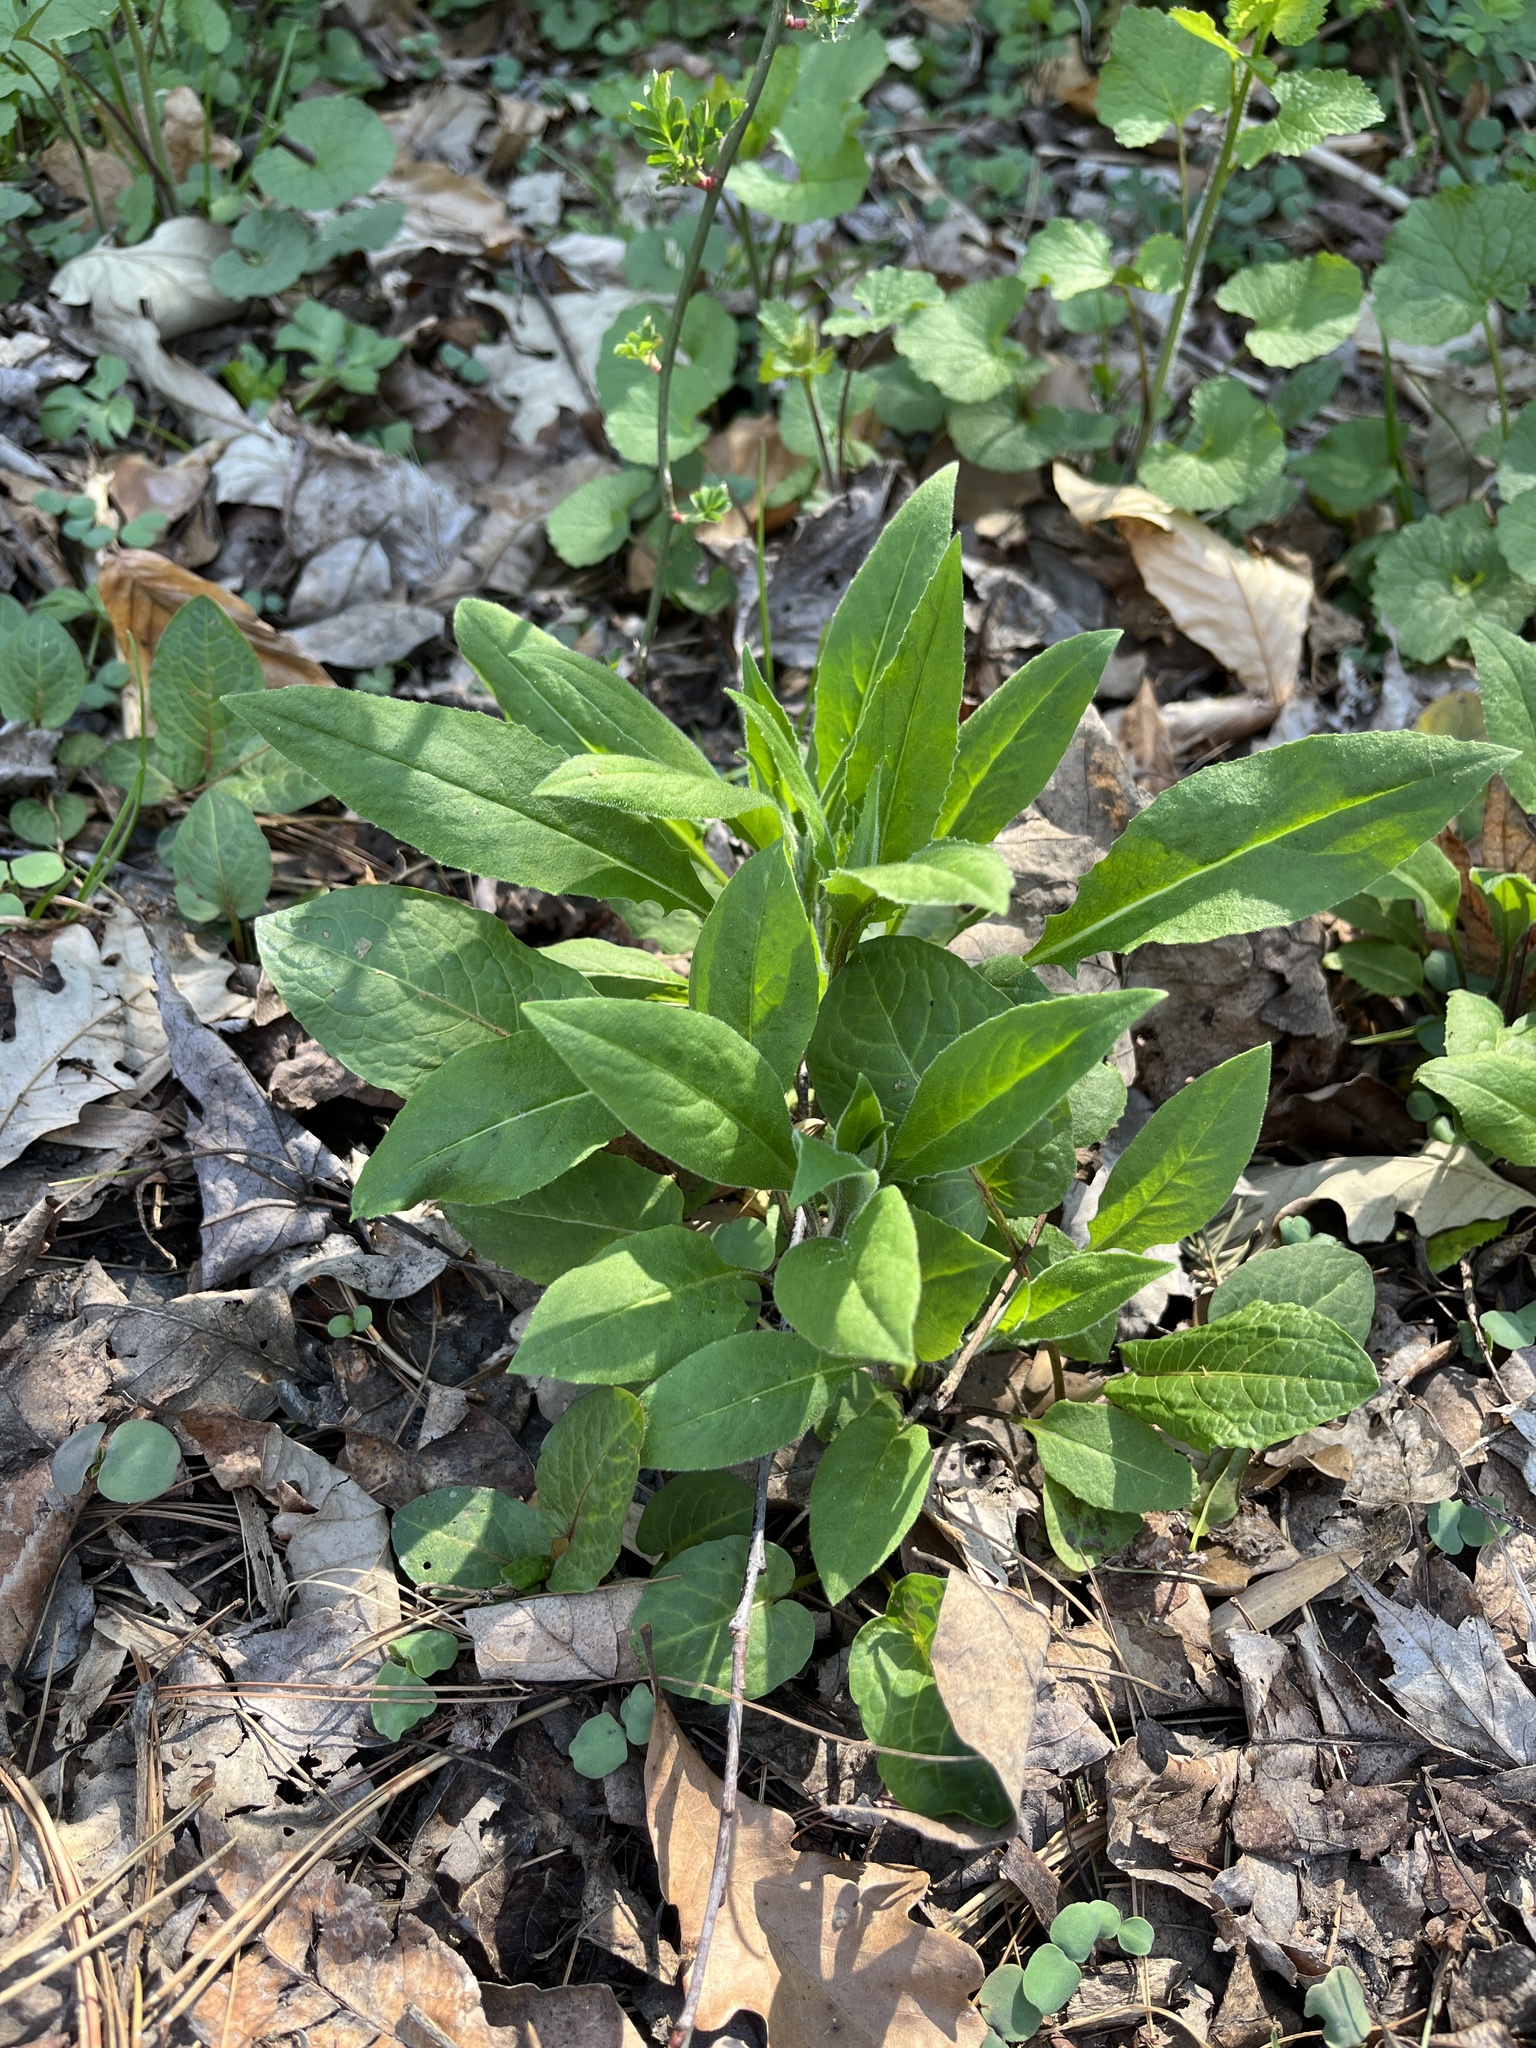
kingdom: Plantae
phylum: Tracheophyta
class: Magnoliopsida
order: Brassicales
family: Brassicaceae
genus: Hesperis
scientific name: Hesperis matronalis
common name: Dame's-violet
